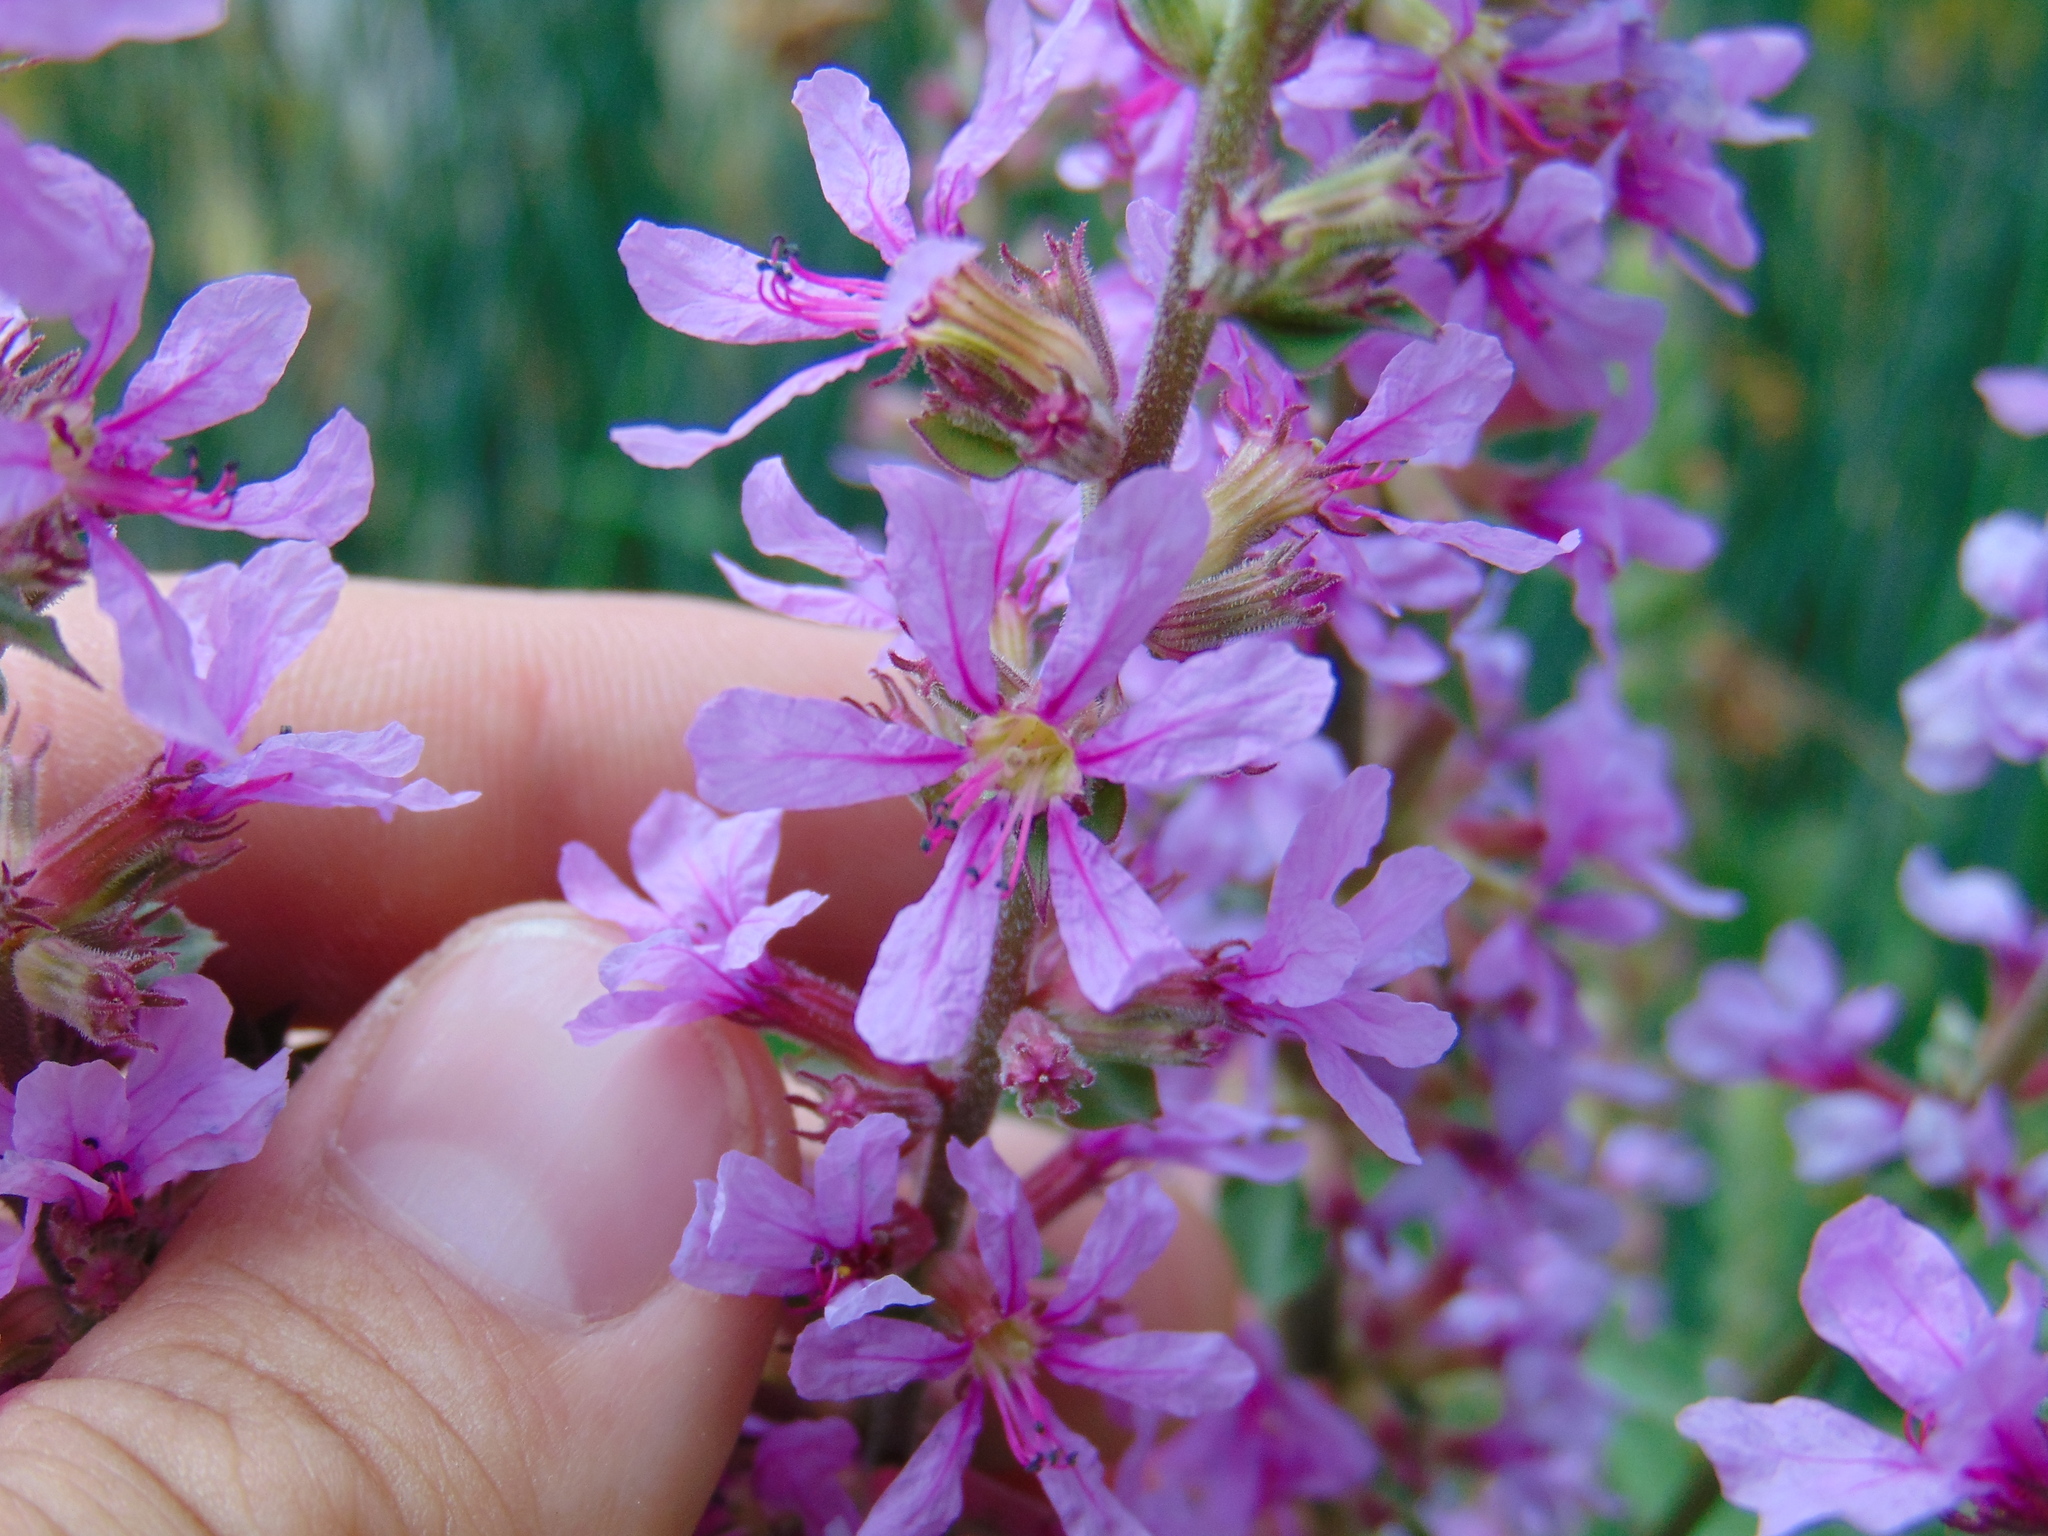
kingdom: Plantae
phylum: Tracheophyta
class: Magnoliopsida
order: Myrtales
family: Lythraceae
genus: Lythrum
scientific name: Lythrum salicaria
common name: Purple loosestrife
